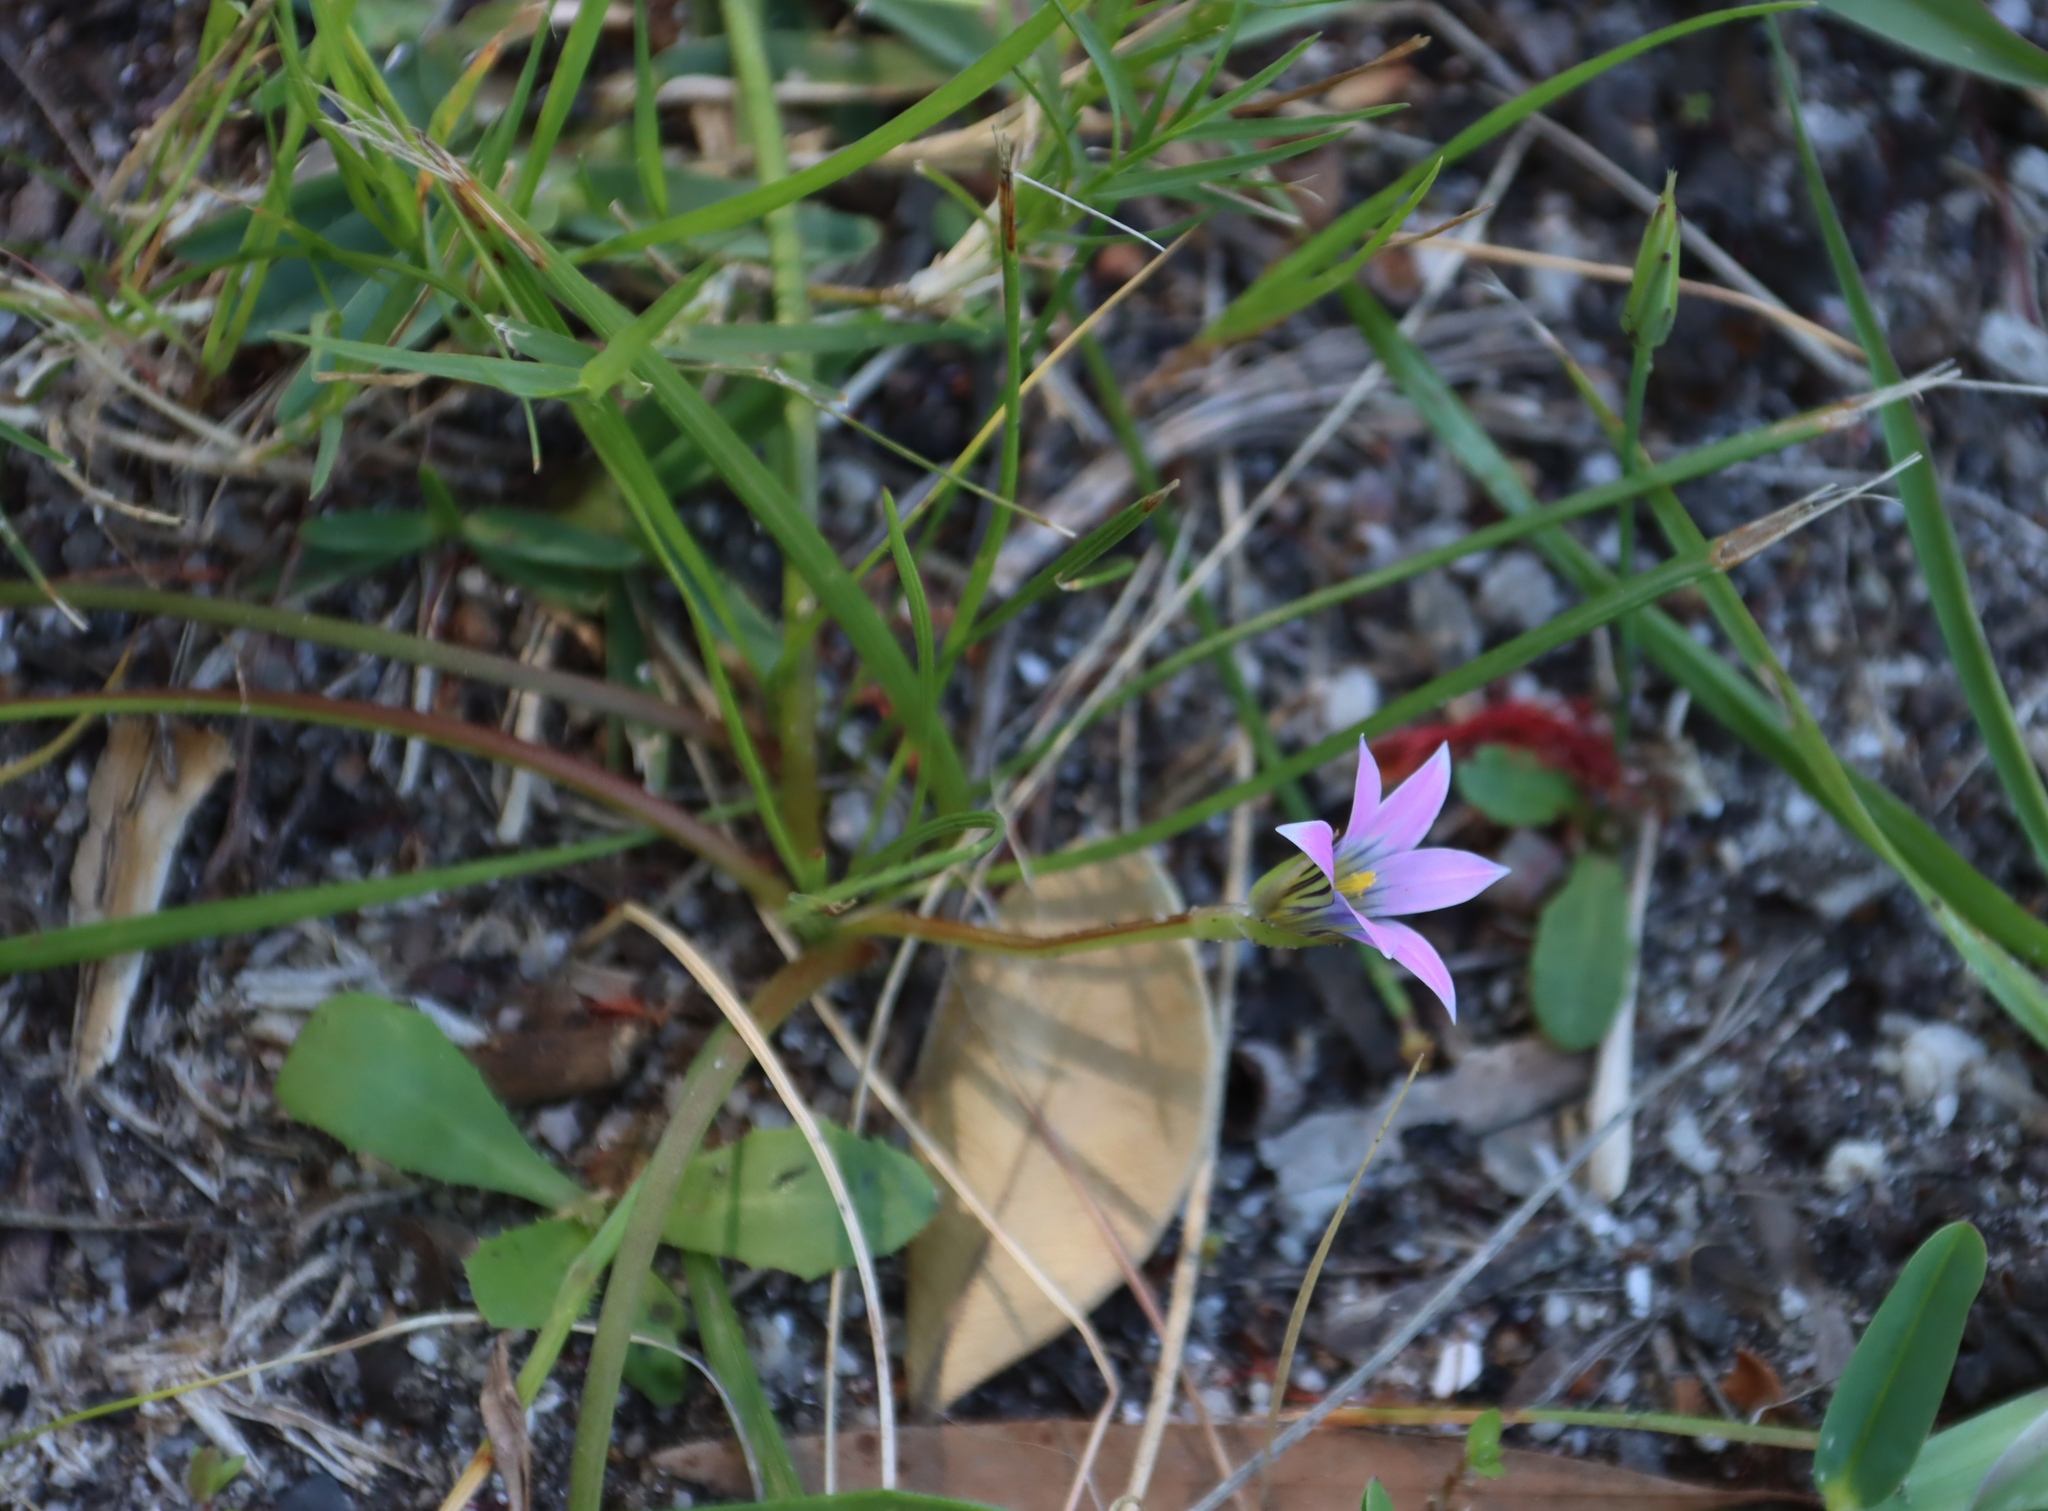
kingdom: Plantae
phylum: Tracheophyta
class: Liliopsida
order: Asparagales
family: Iridaceae
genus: Romulea
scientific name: Romulea rosea
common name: Oniongrass
